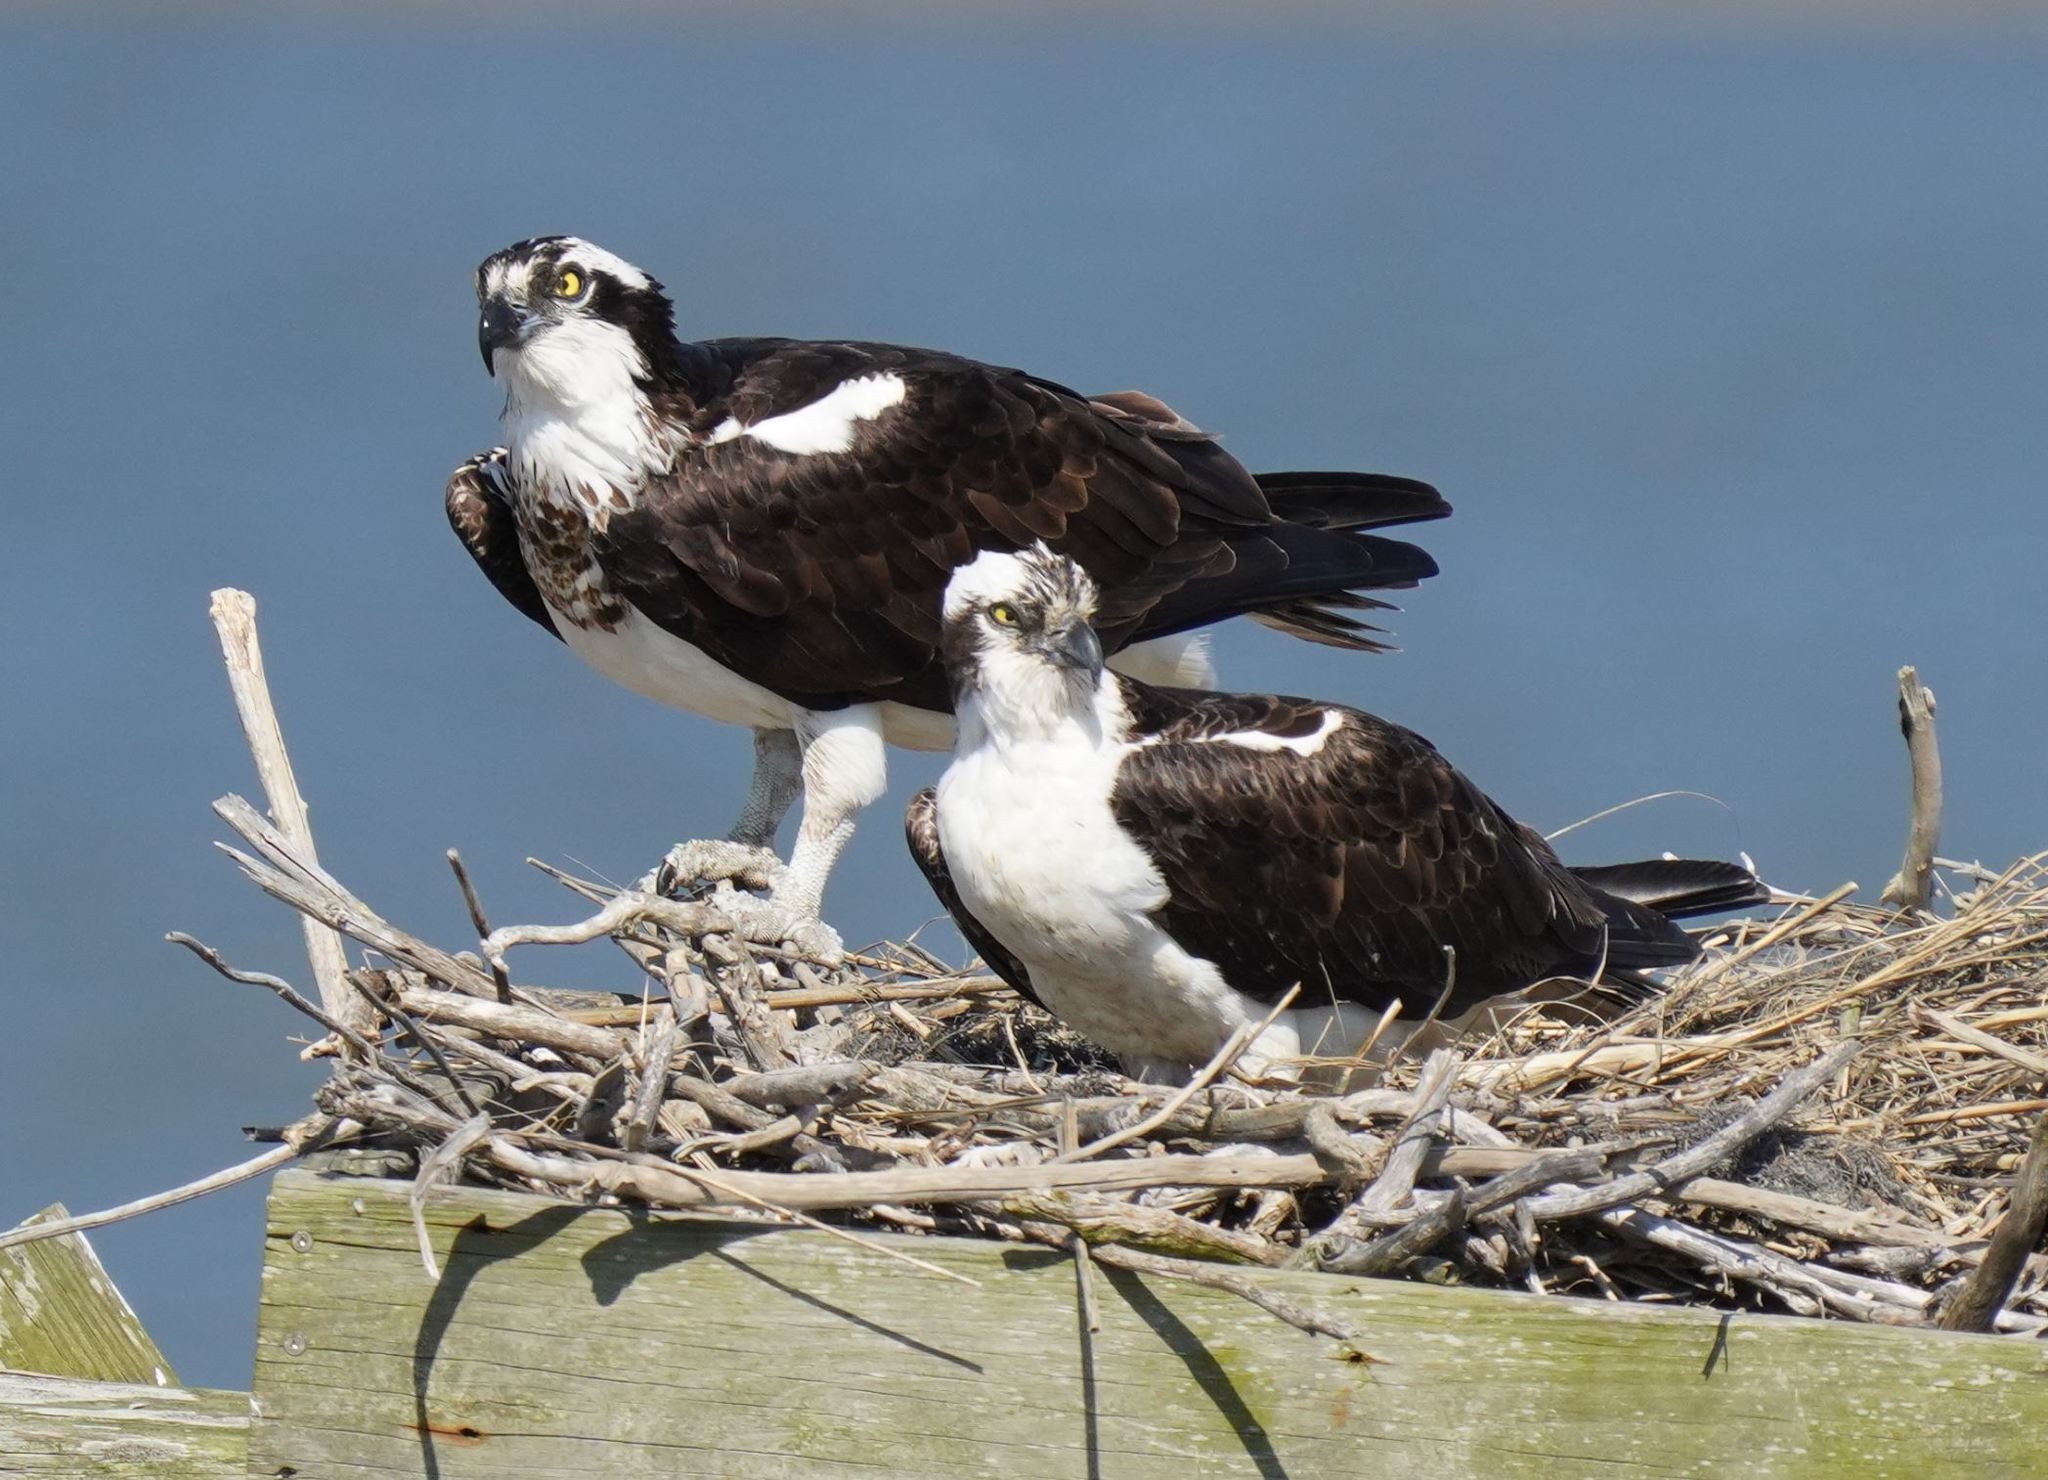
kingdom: Animalia
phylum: Chordata
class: Aves
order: Accipitriformes
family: Pandionidae
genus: Pandion
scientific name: Pandion haliaetus
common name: Osprey
